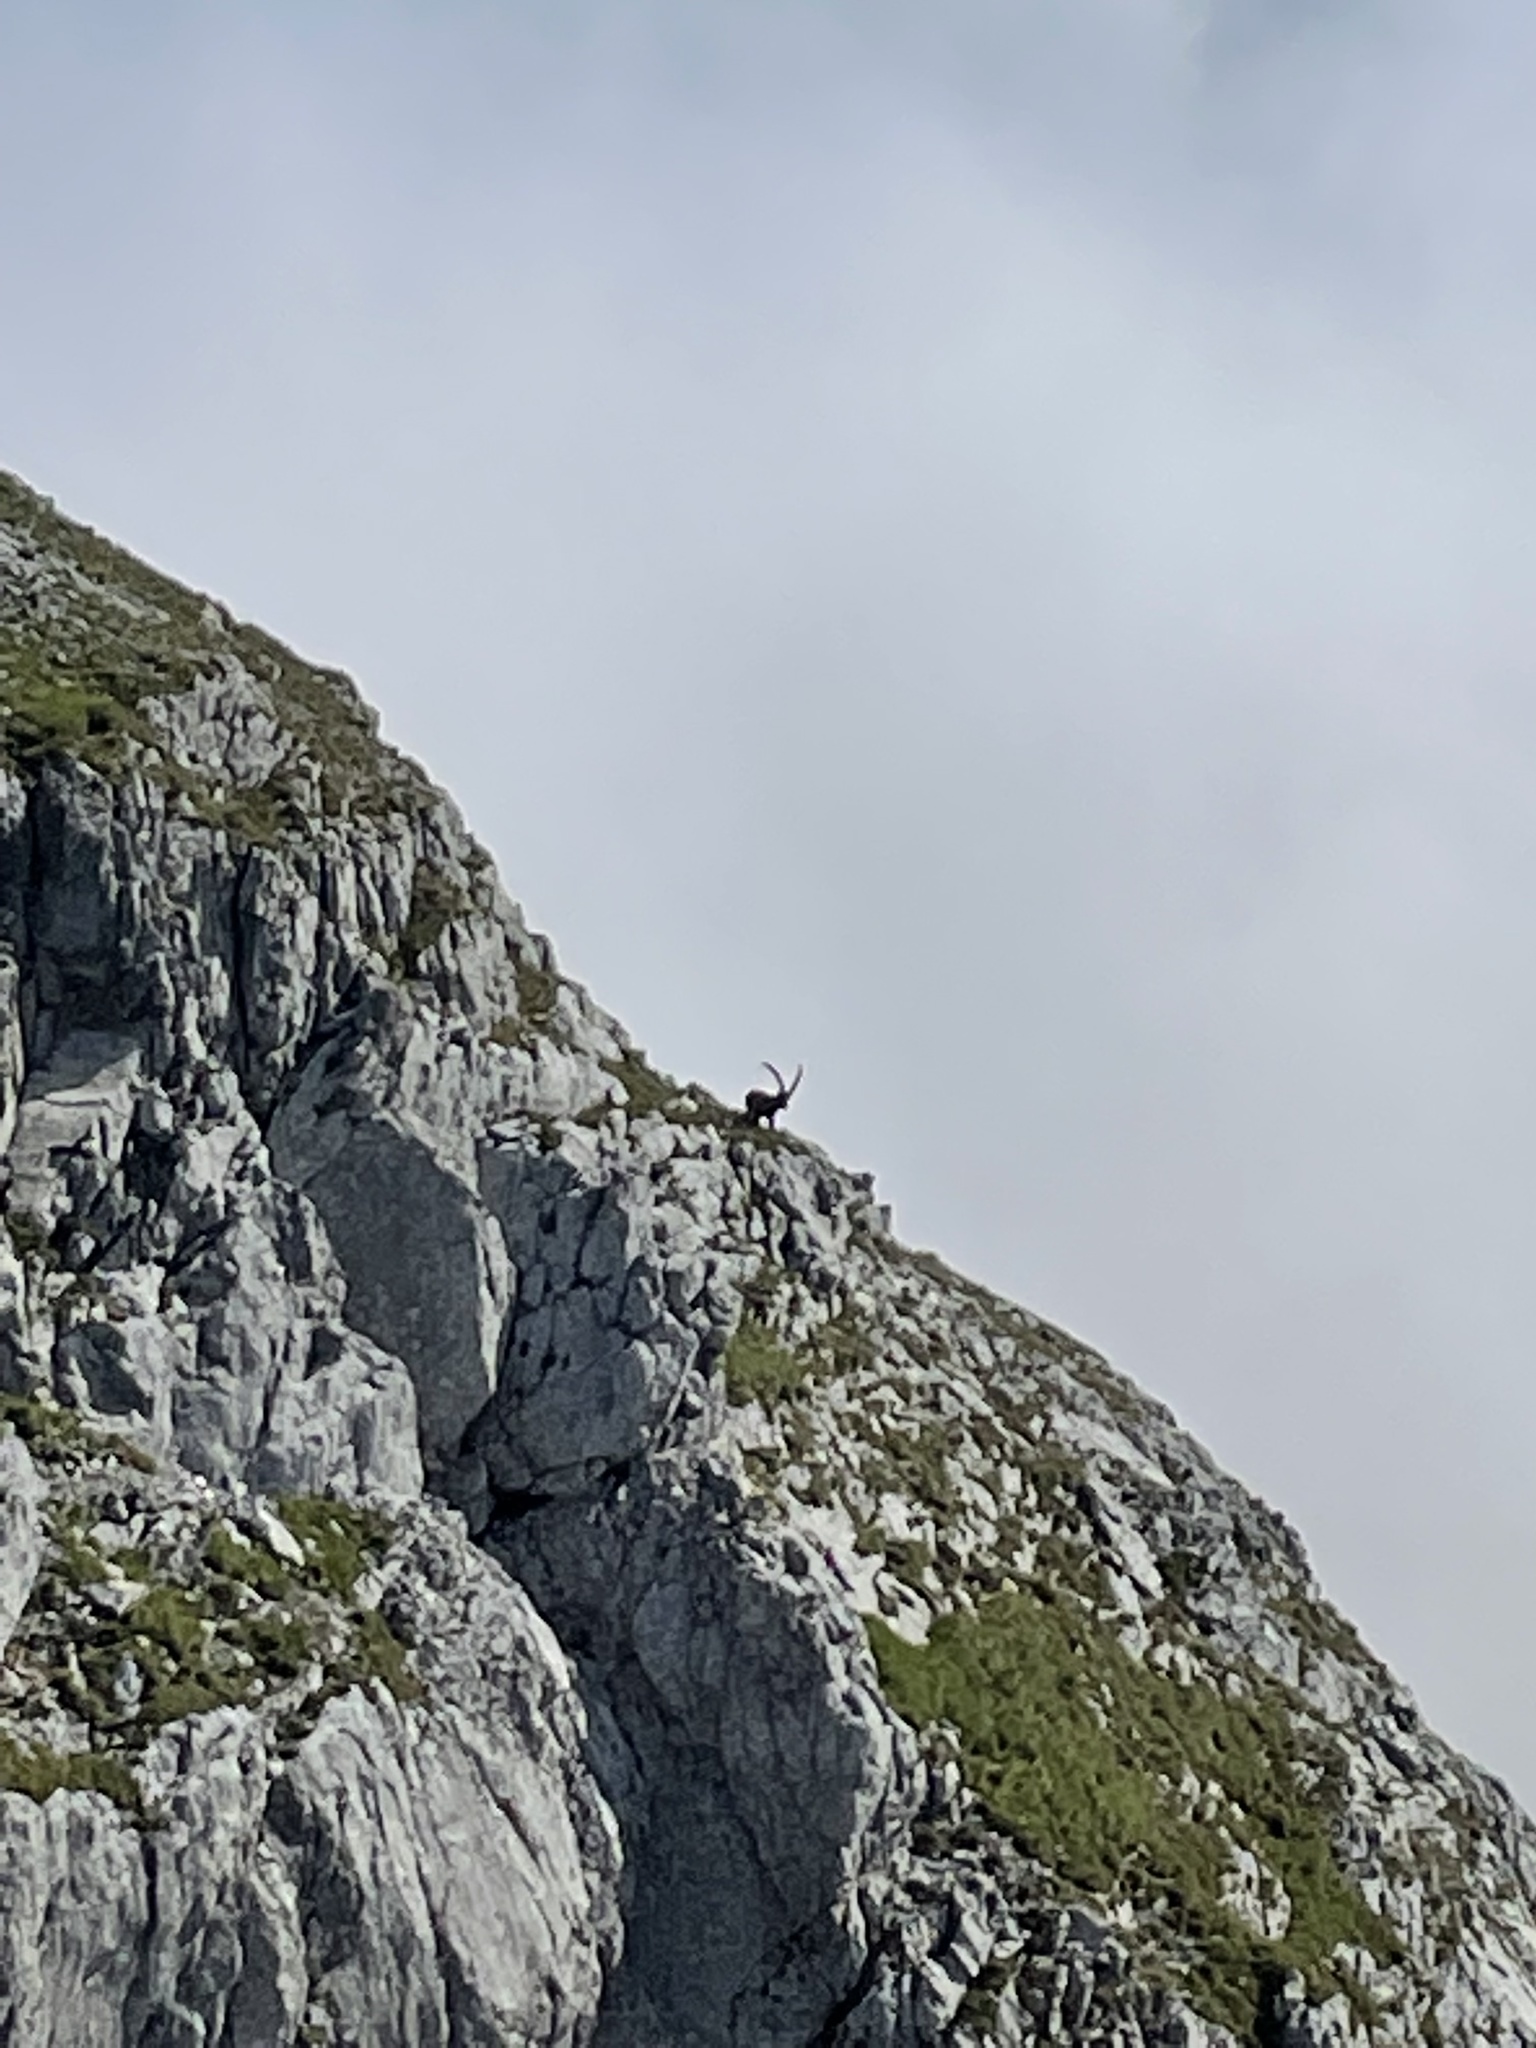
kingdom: Animalia
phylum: Chordata
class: Mammalia
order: Artiodactyla
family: Bovidae
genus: Capra
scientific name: Capra ibex
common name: Alpine ibex
